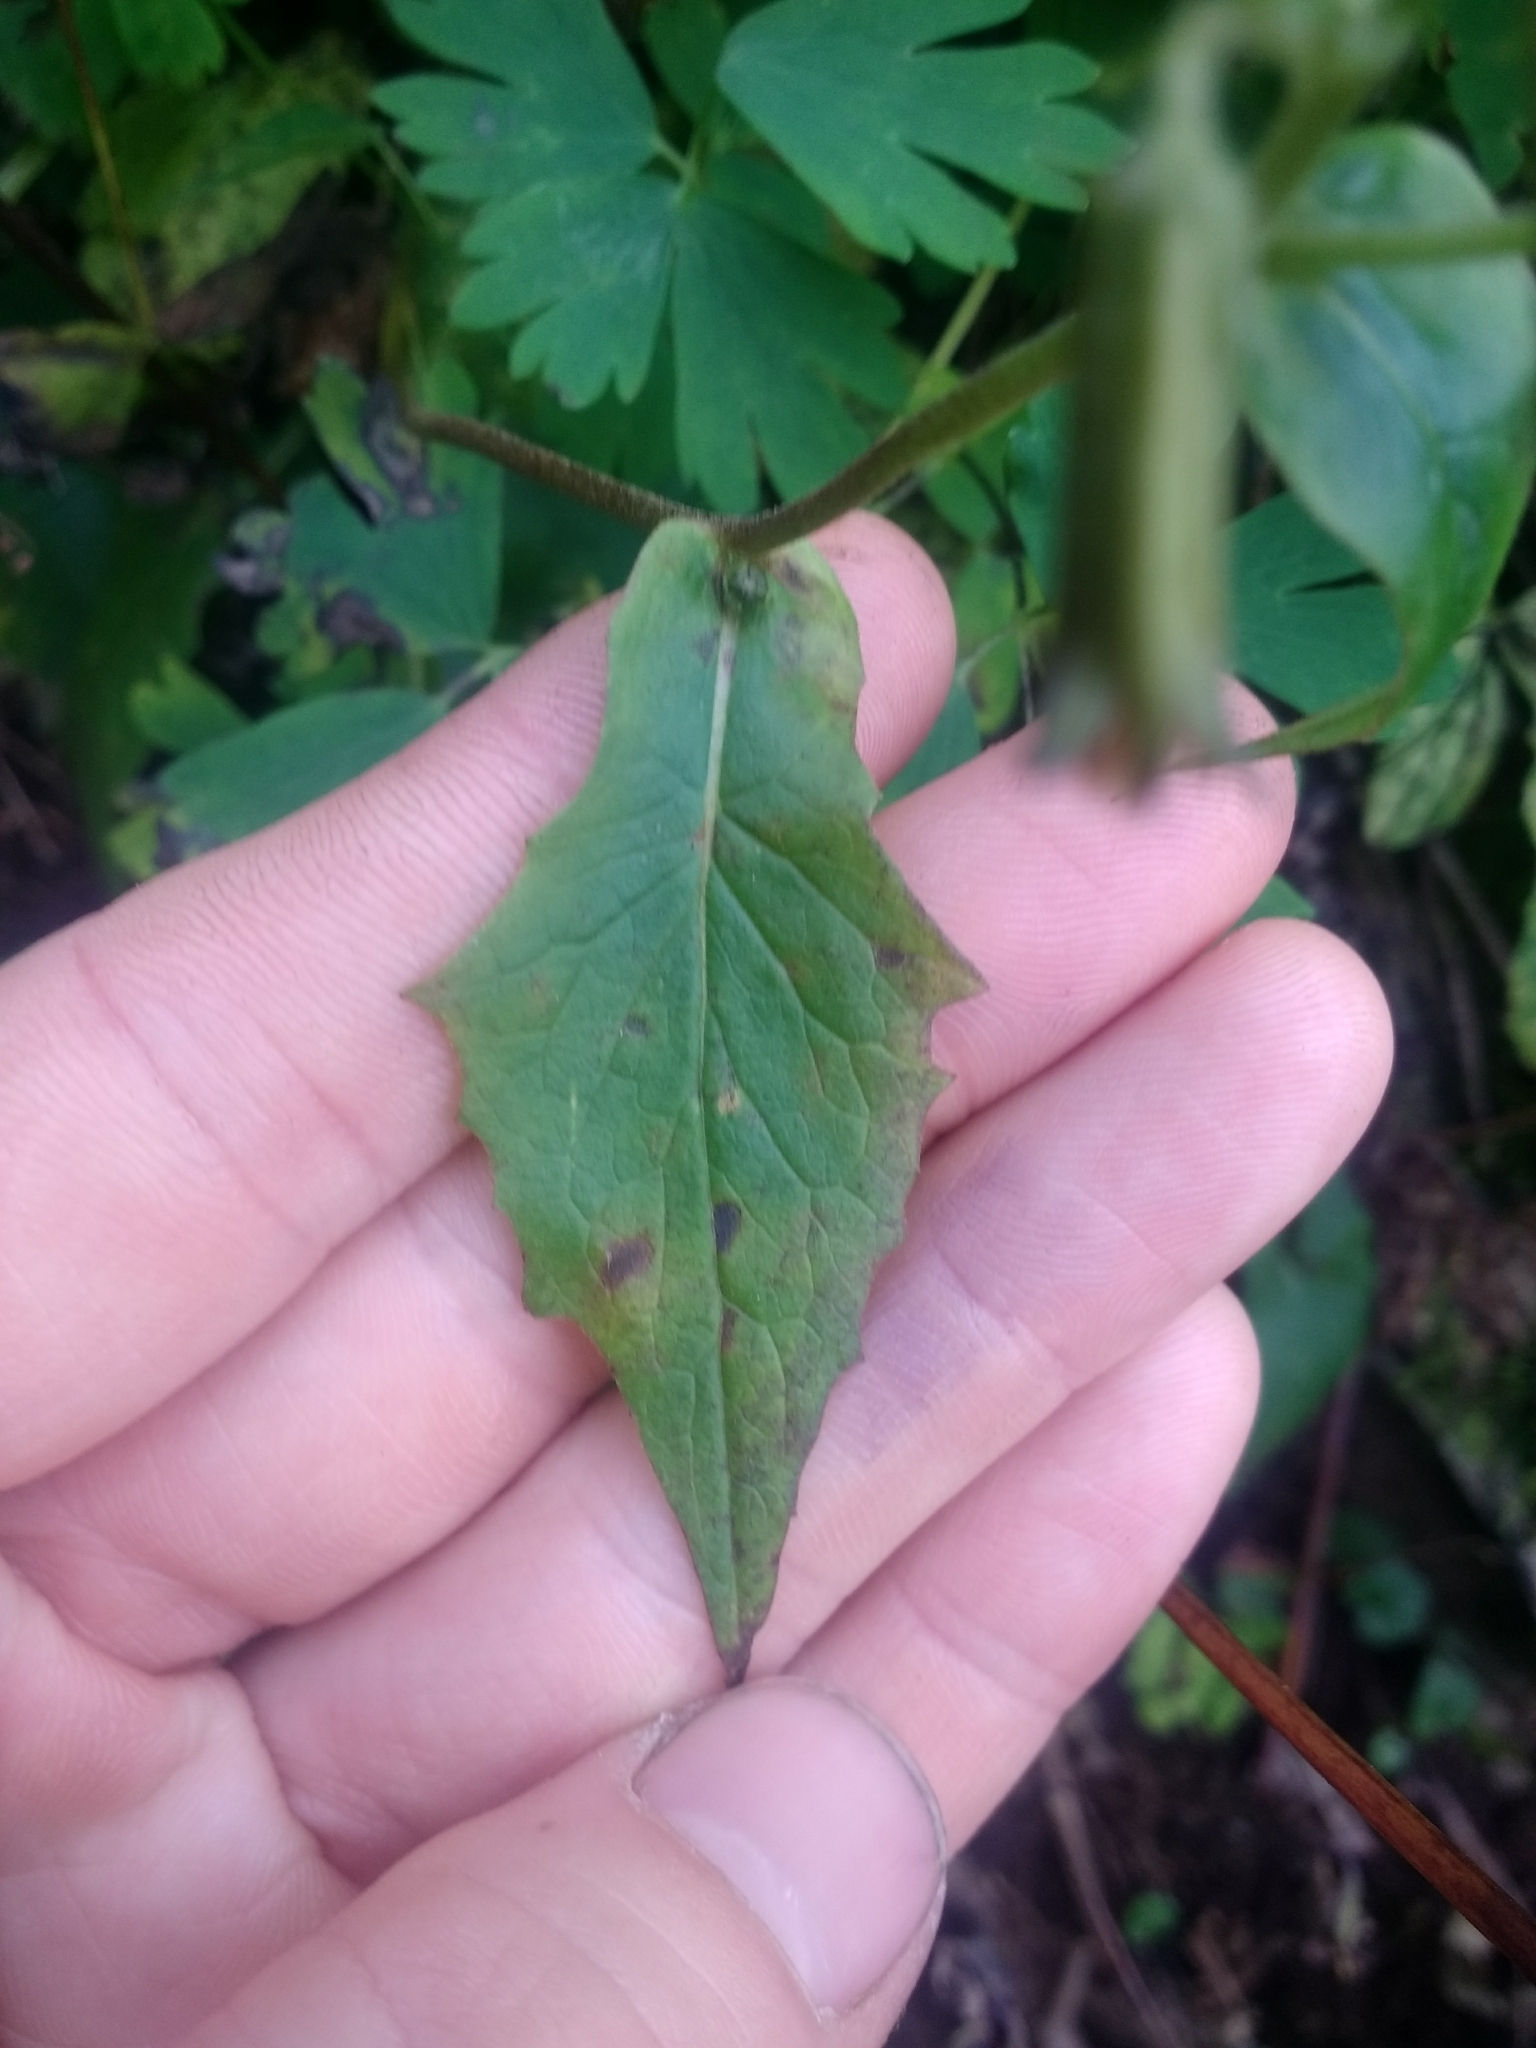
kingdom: Plantae
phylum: Tracheophyta
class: Magnoliopsida
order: Asterales
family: Asteraceae
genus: Nabalus
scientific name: Nabalus hastatus
